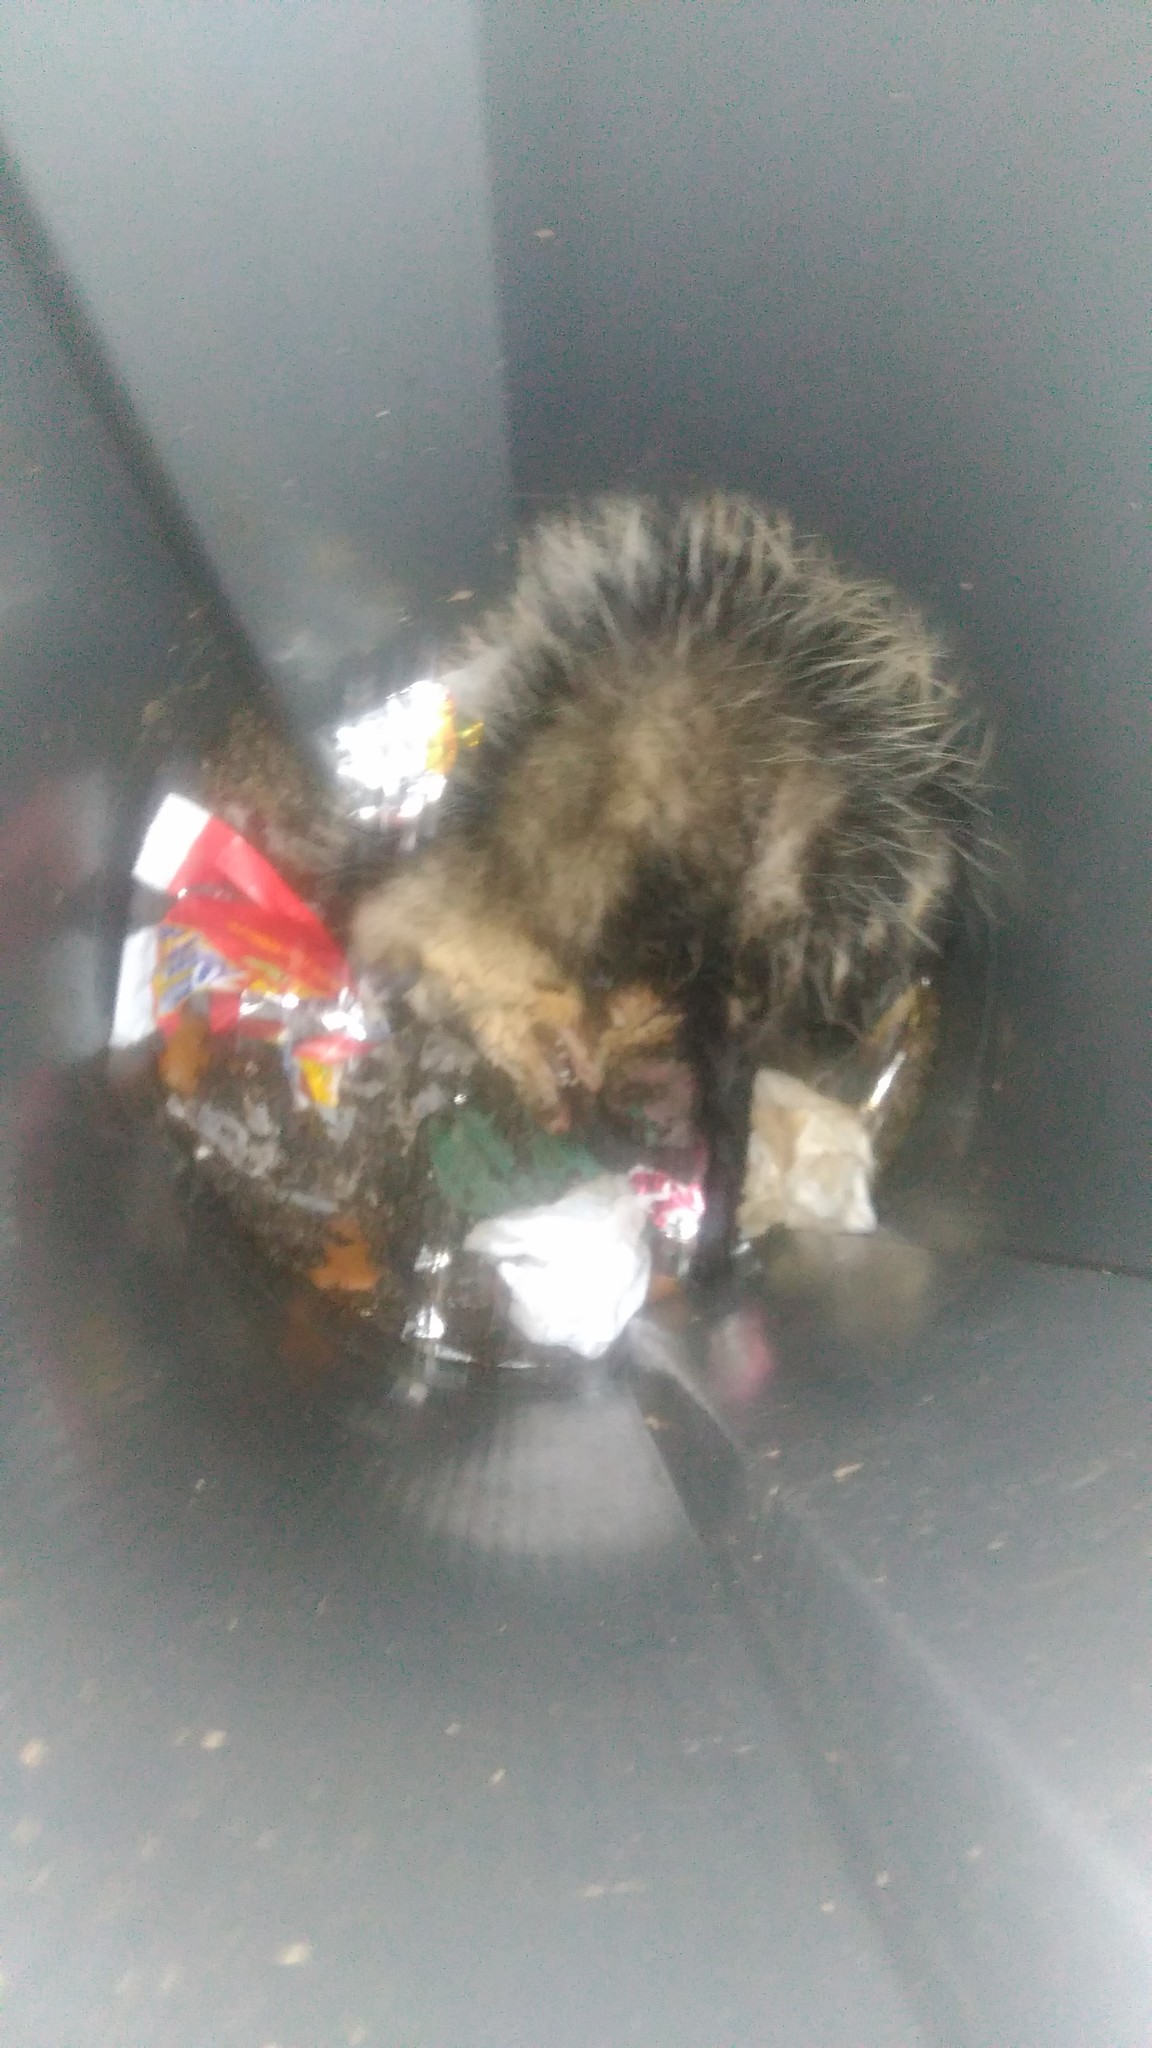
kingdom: Animalia
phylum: Chordata
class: Mammalia
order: Didelphimorphia
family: Didelphidae
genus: Didelphis
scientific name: Didelphis albiventris
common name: White-eared opossum
